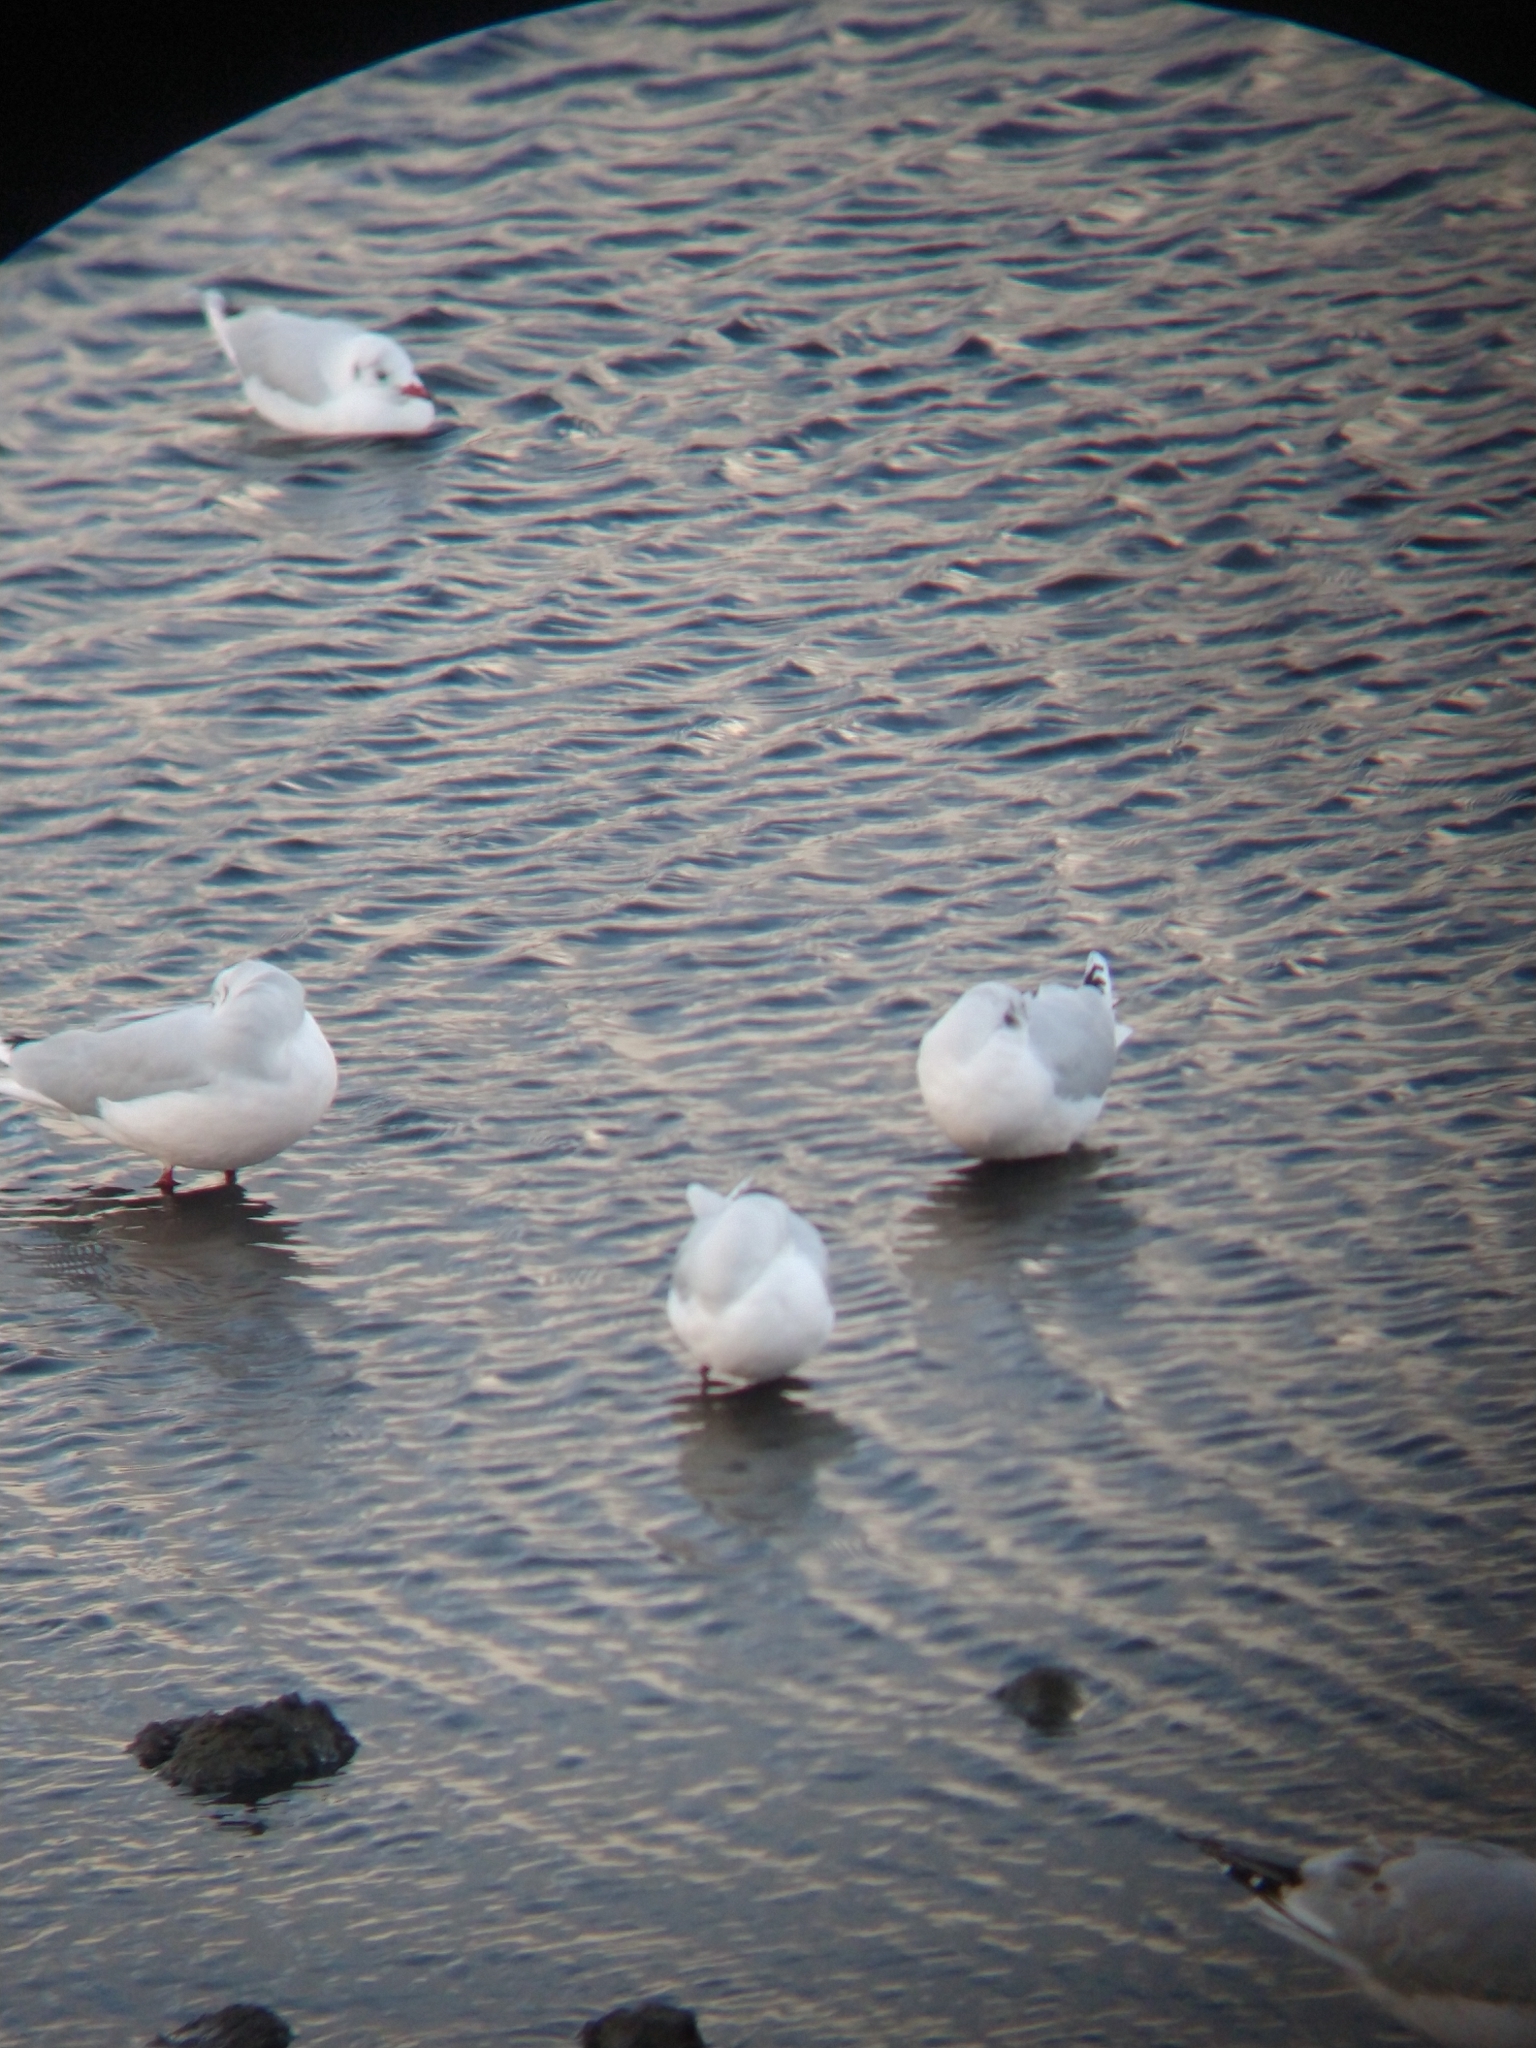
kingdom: Animalia
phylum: Chordata
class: Aves
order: Charadriiformes
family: Laridae
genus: Chroicocephalus
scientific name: Chroicocephalus maculipennis
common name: Brown-hooded gull
